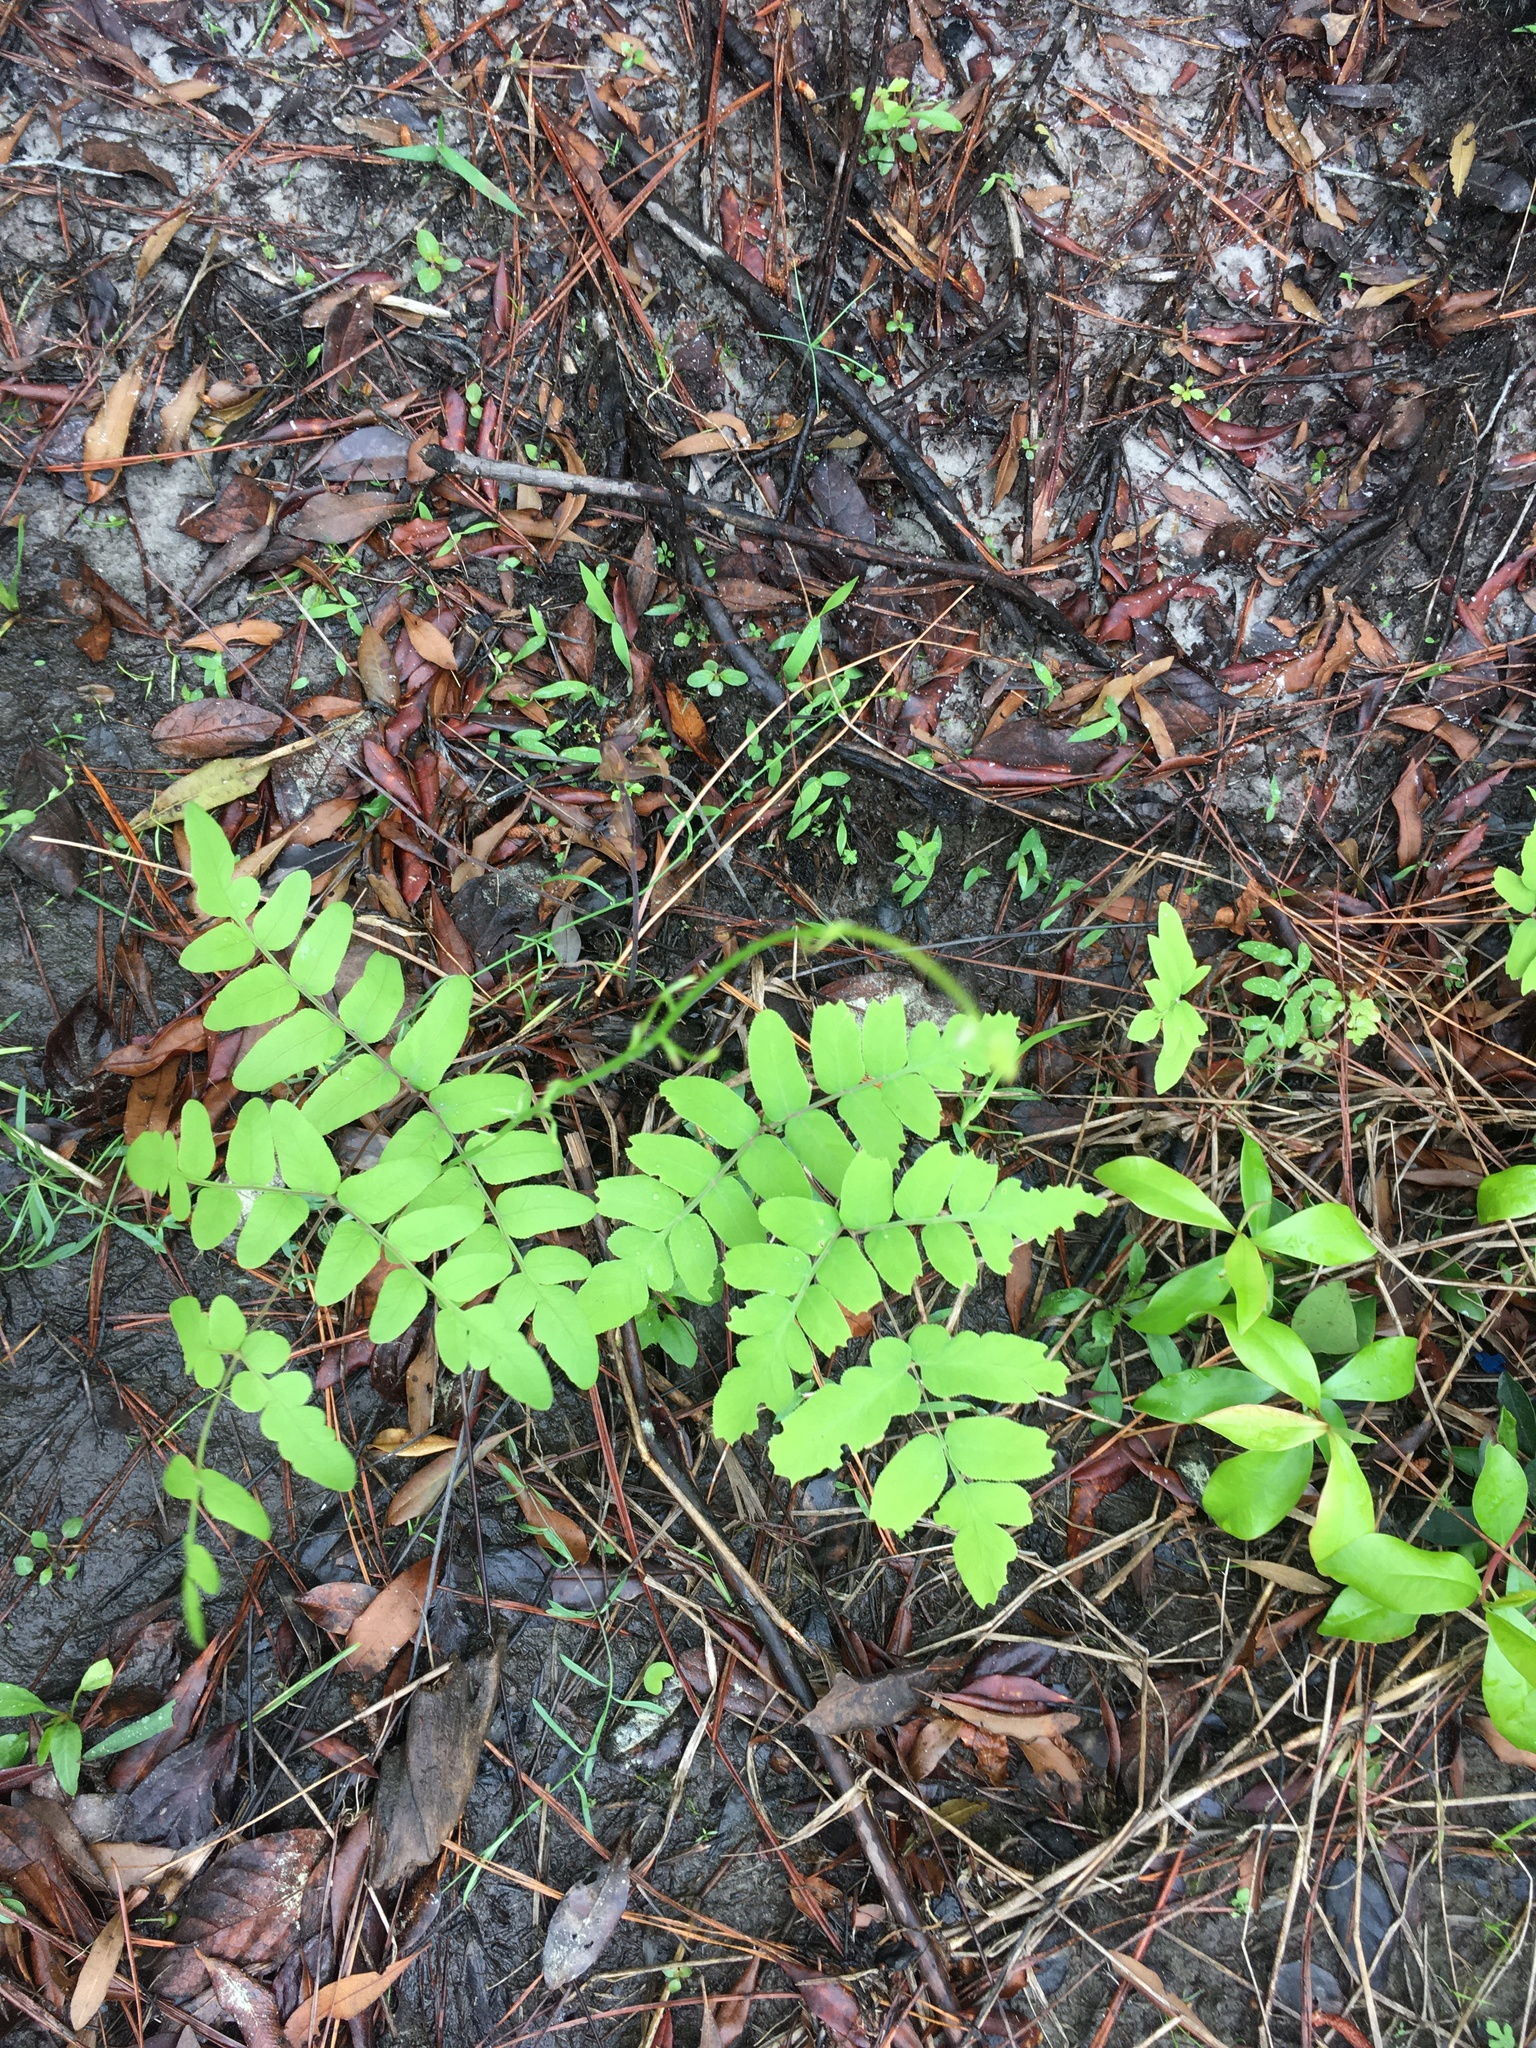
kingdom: Plantae
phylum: Tracheophyta
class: Polypodiopsida
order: Osmundales
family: Osmundaceae
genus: Osmunda
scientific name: Osmunda spectabilis
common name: American royal fern
